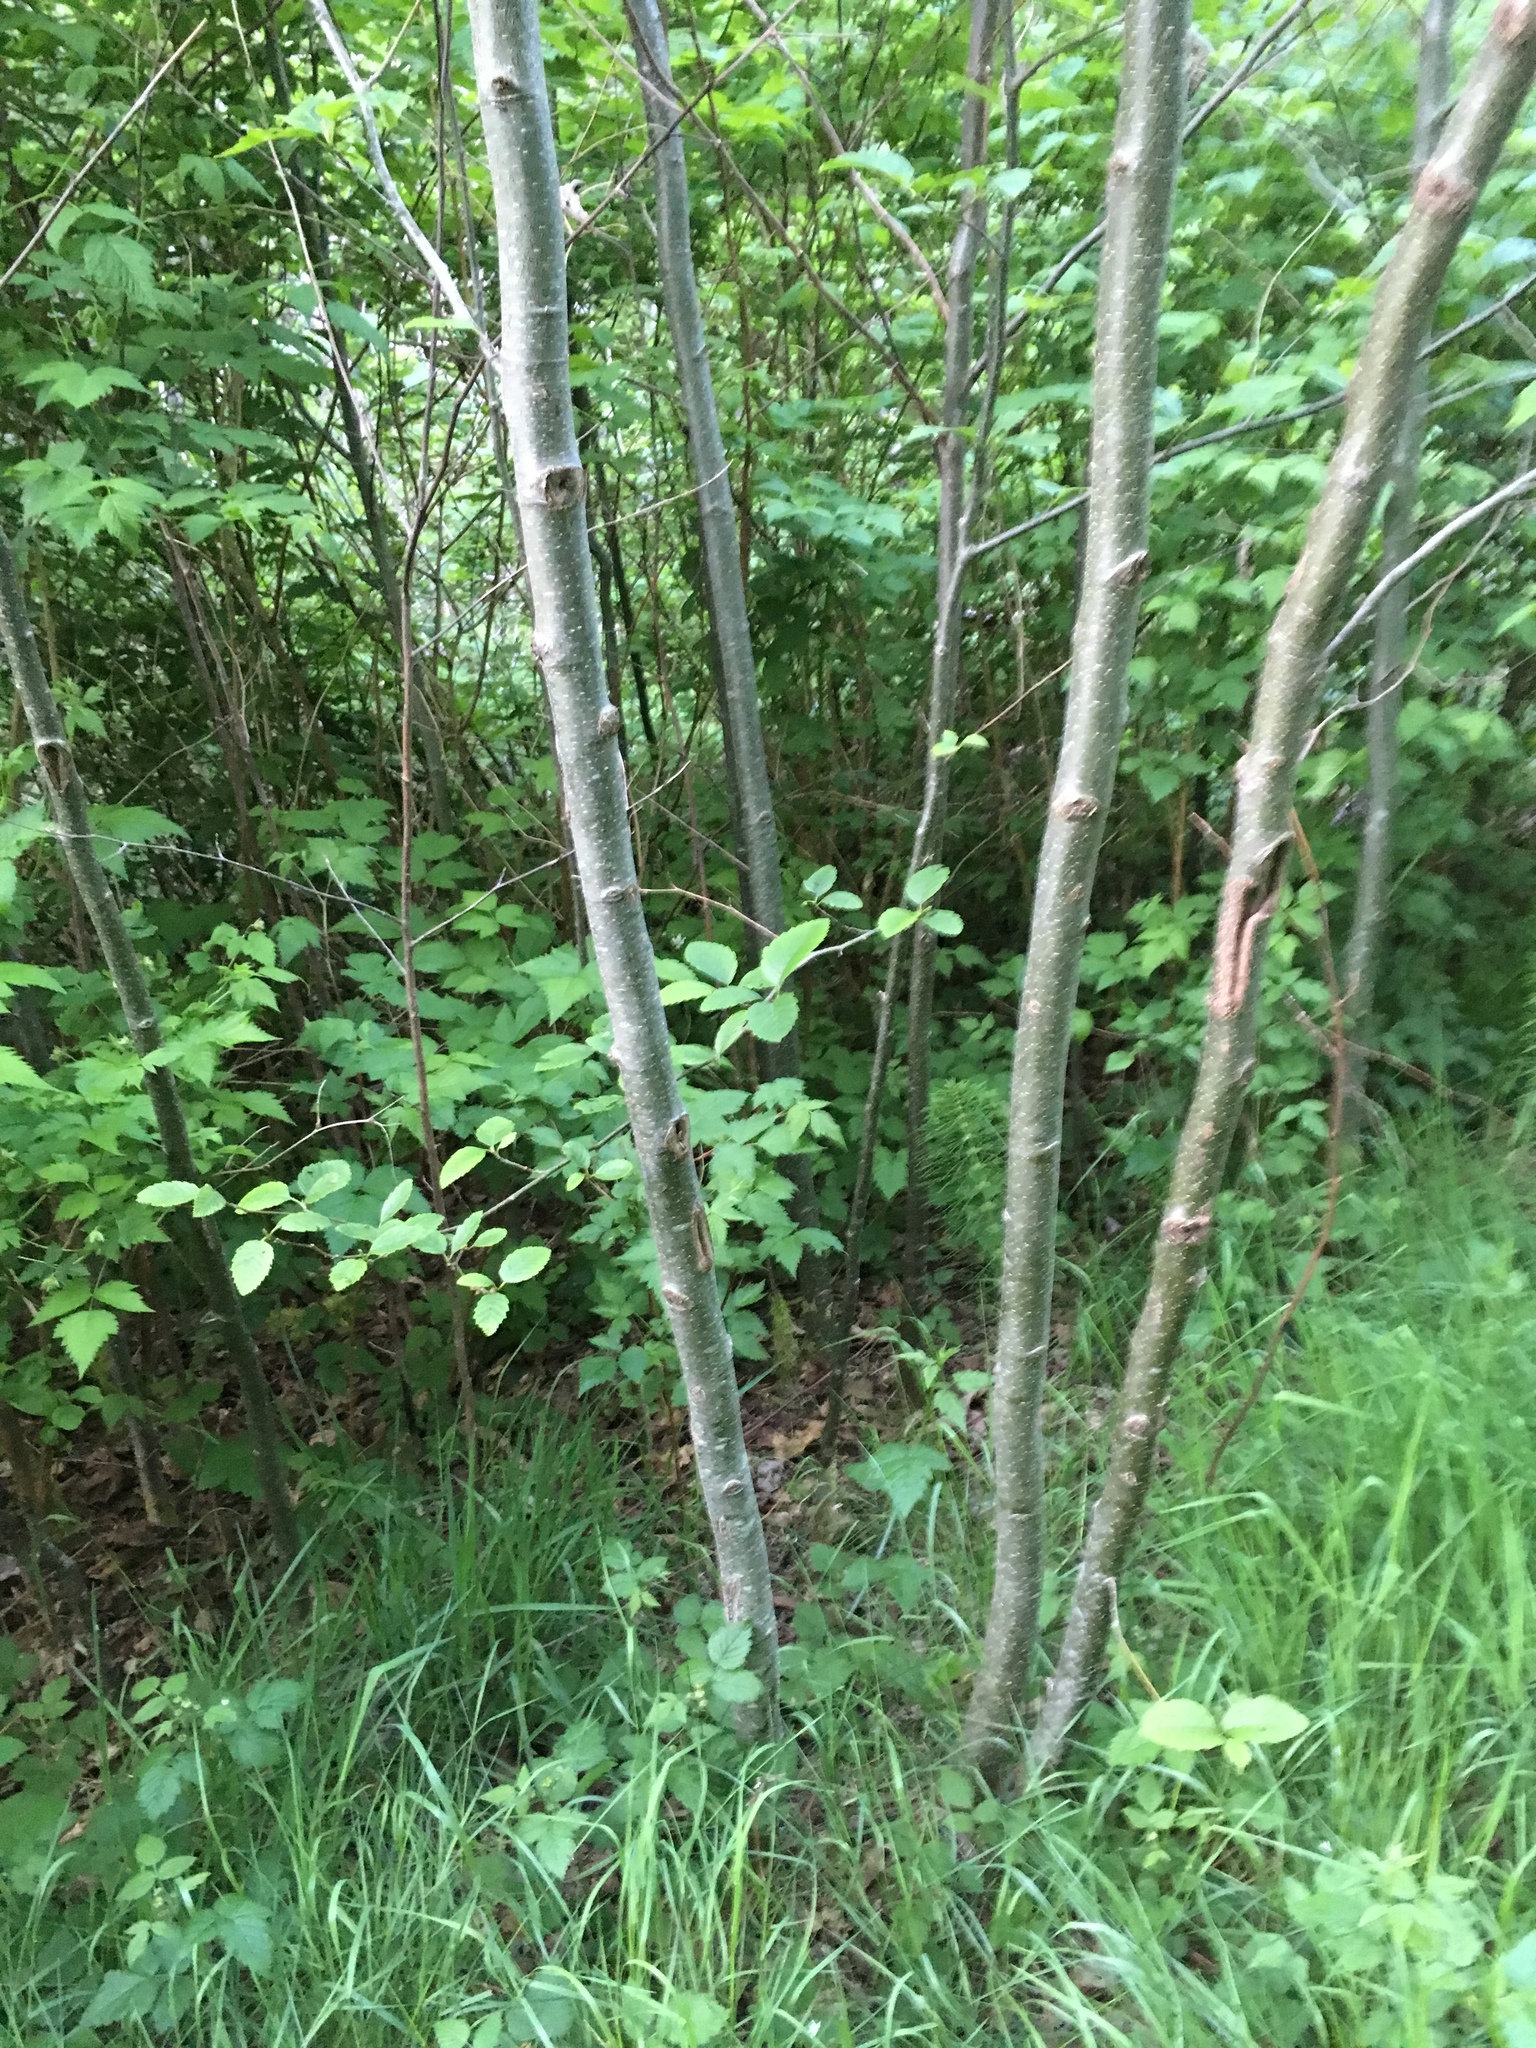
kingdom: Plantae
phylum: Tracheophyta
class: Magnoliopsida
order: Fagales
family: Betulaceae
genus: Alnus
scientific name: Alnus rubra
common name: Red alder
